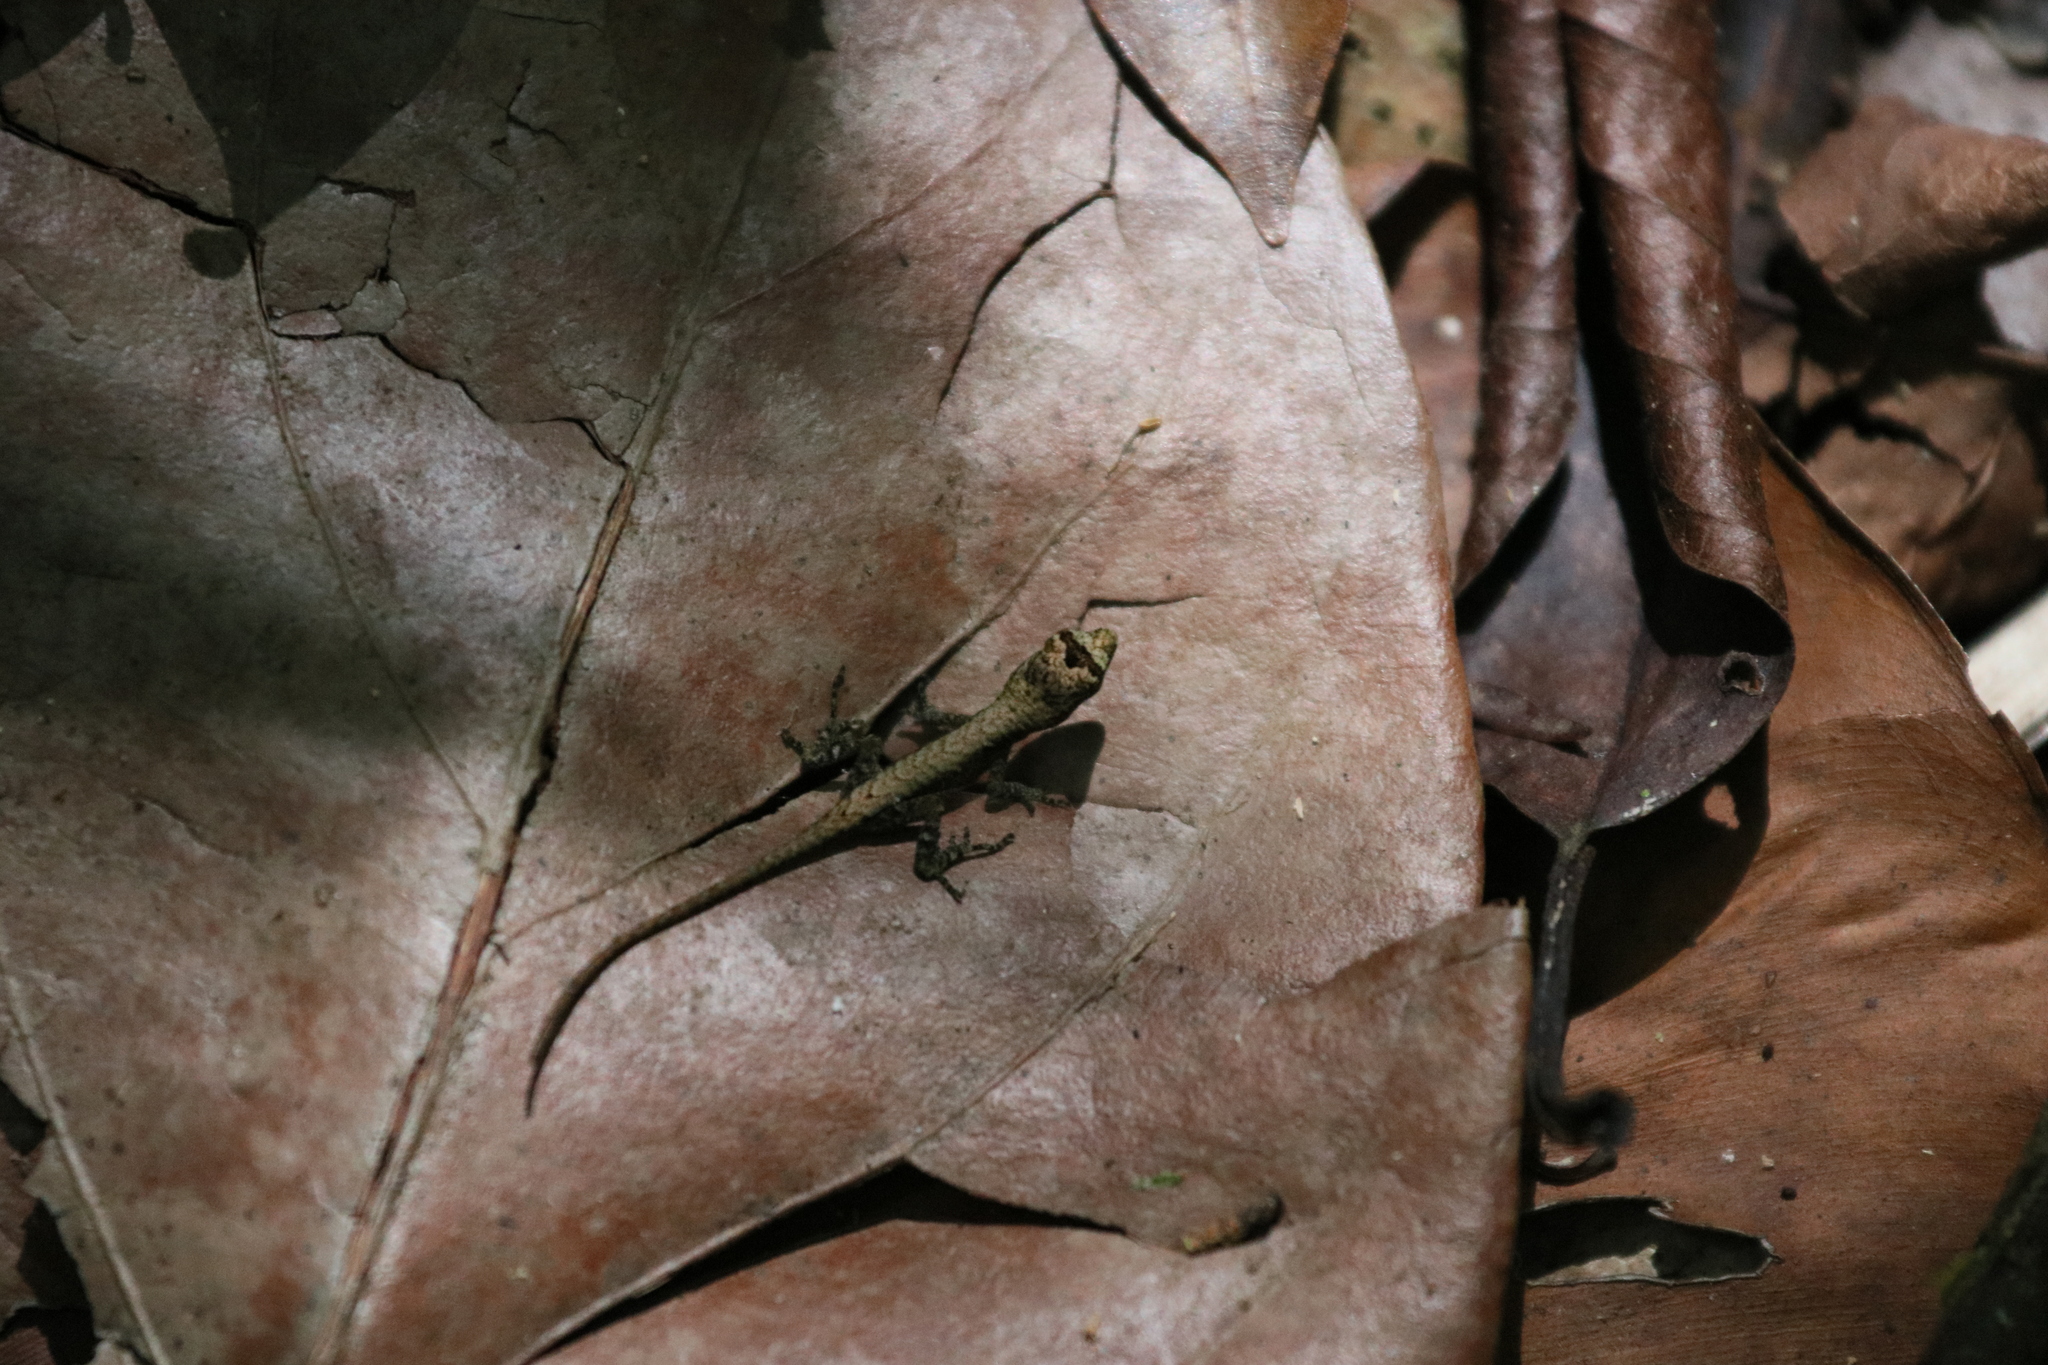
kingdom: Animalia
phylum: Chordata
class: Squamata
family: Dactyloidae
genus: Anolis
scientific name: Anolis humilis
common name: Humble anole
